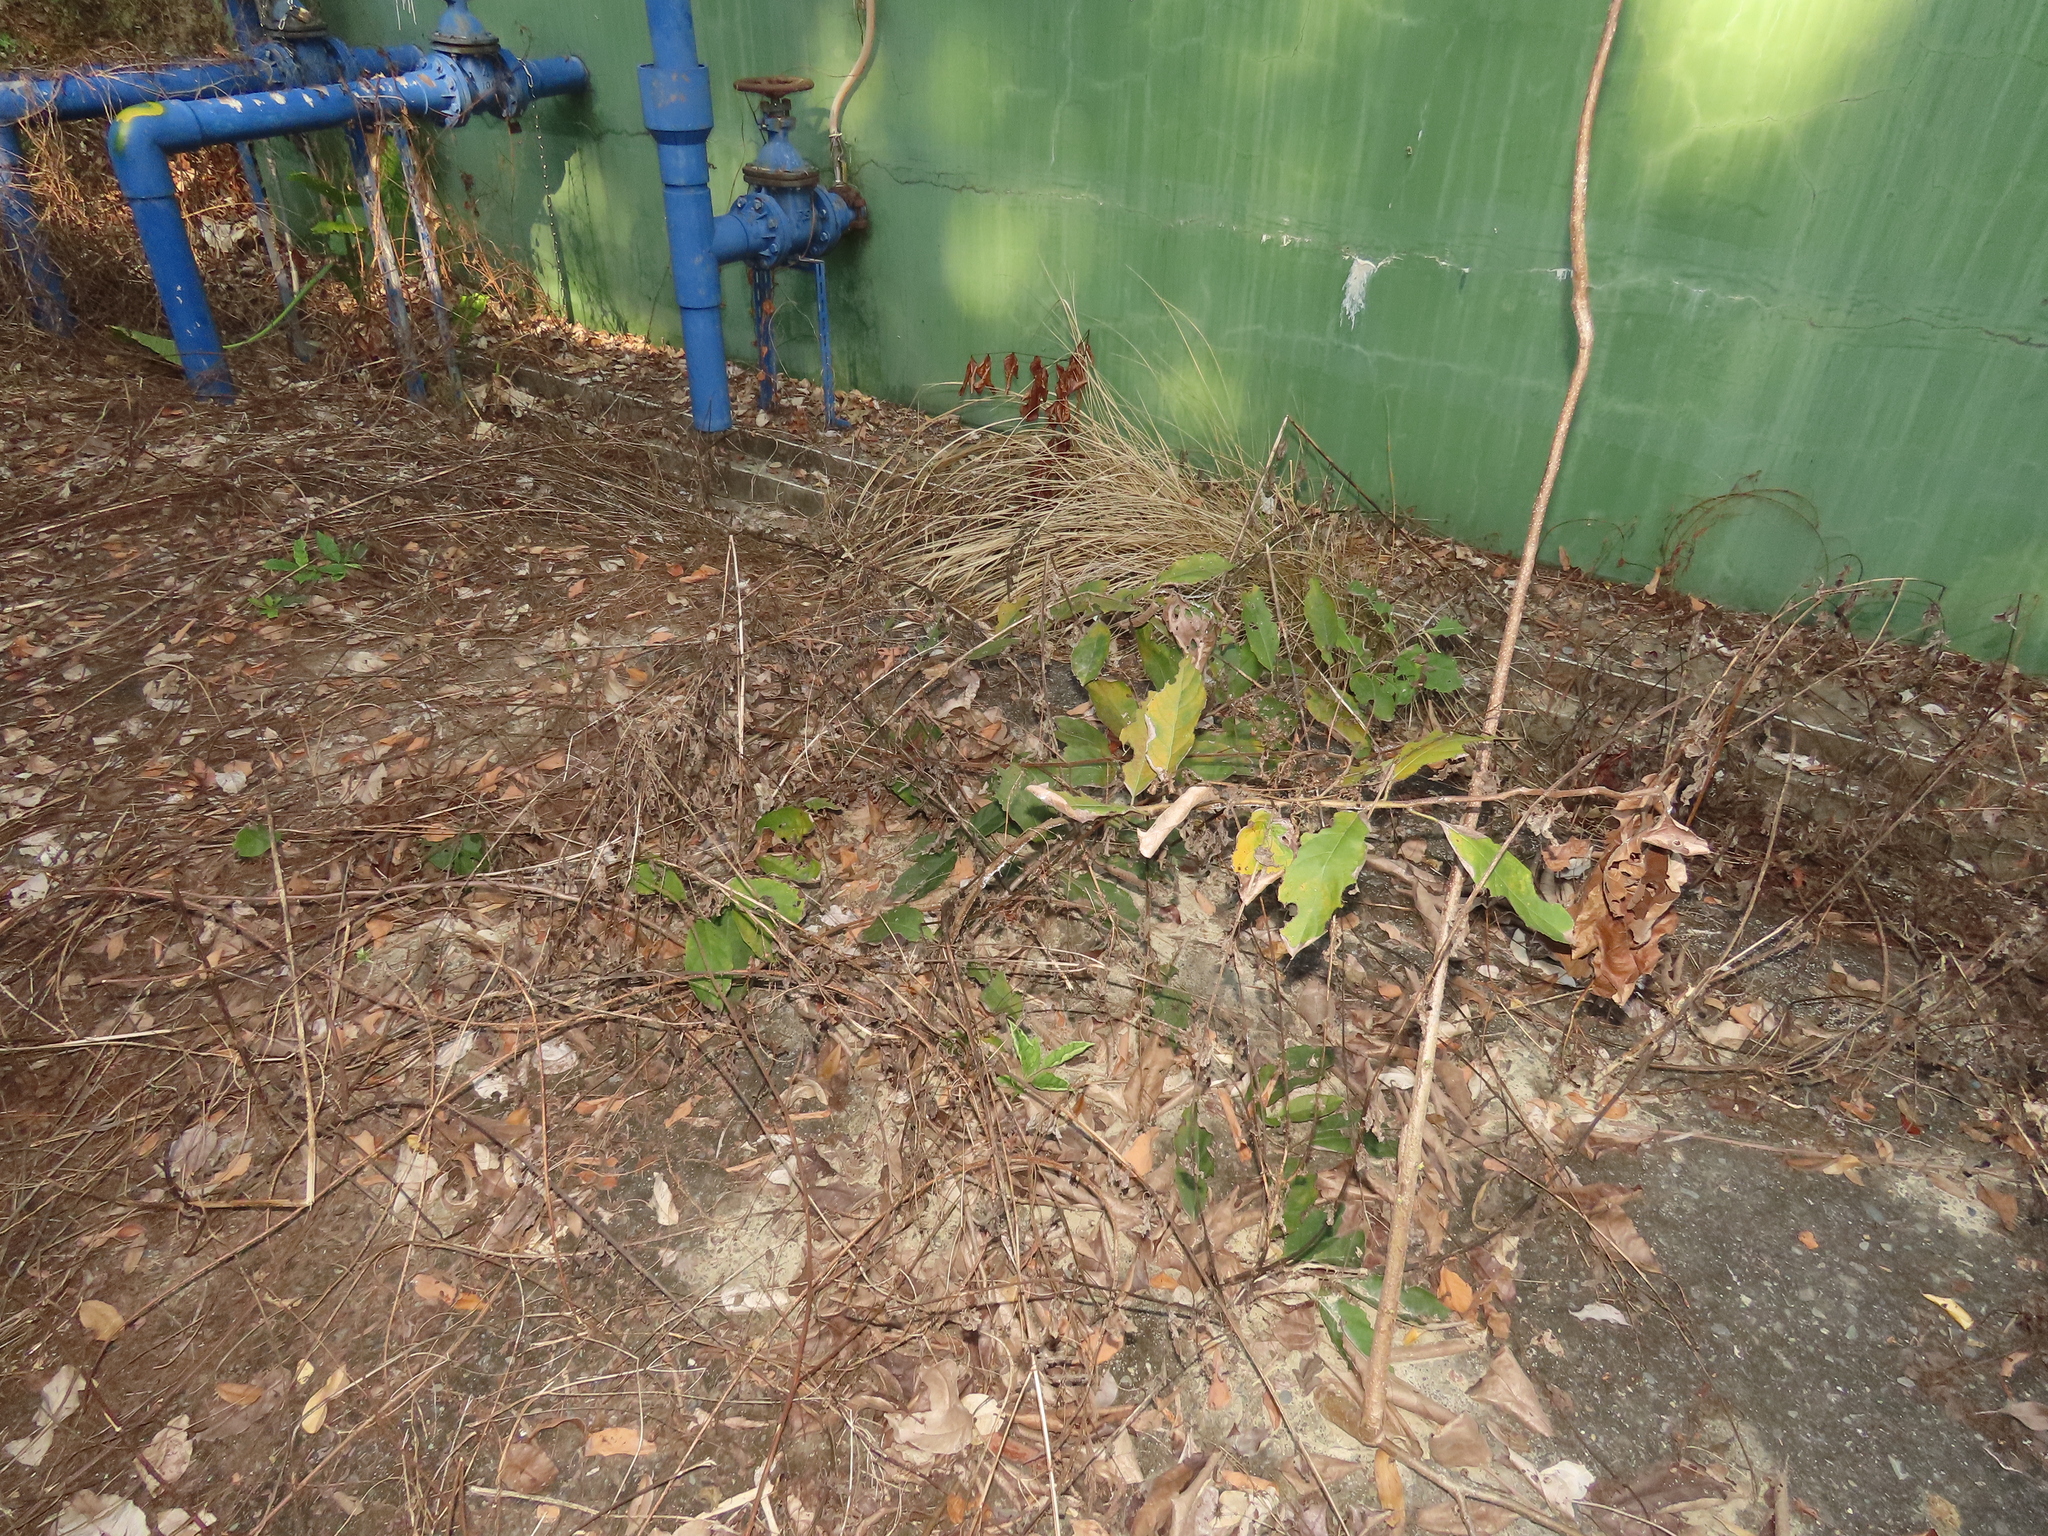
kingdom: Plantae
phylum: Tracheophyta
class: Magnoliopsida
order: Boraginales
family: Cordiaceae
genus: Cordia
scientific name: Cordia dichotoma
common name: Fragrant manjack
